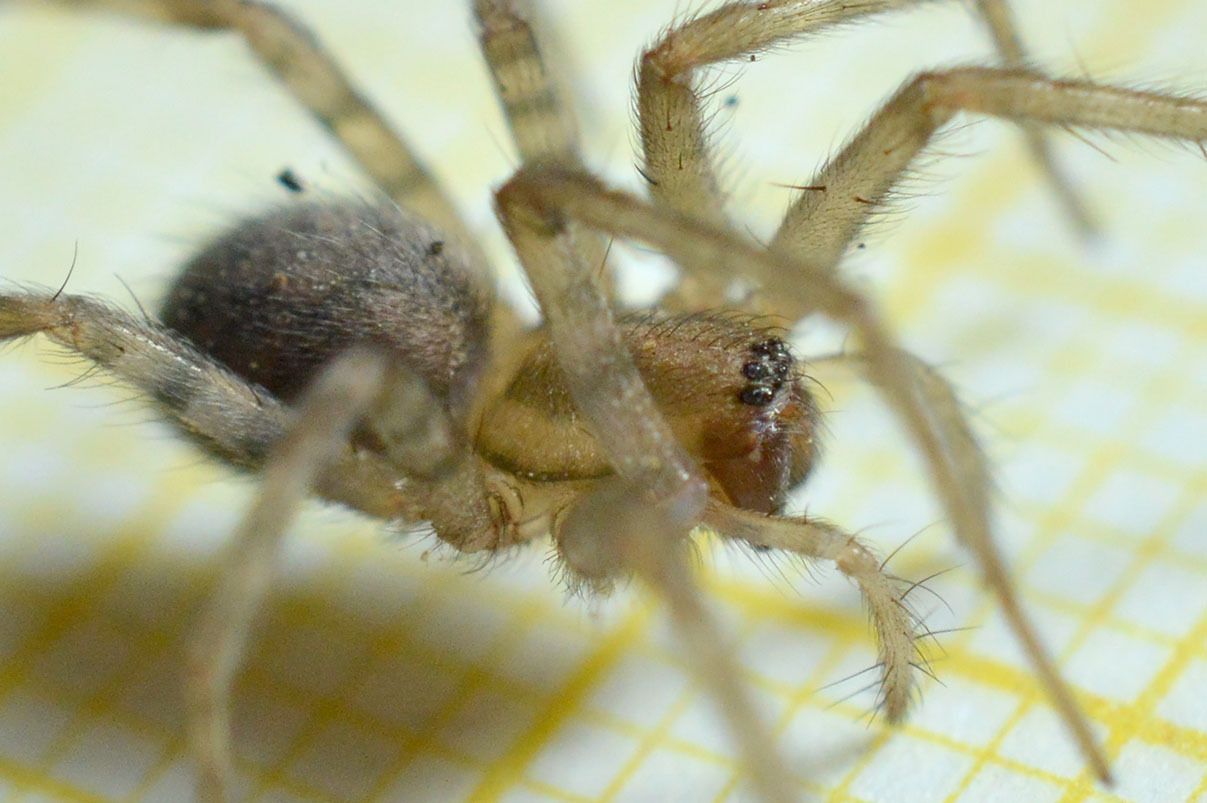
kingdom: Animalia
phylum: Arthropoda
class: Arachnida
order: Araneae
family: Agelenidae
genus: Tegenaria
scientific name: Tegenaria domestica
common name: Barn funnel weaver
